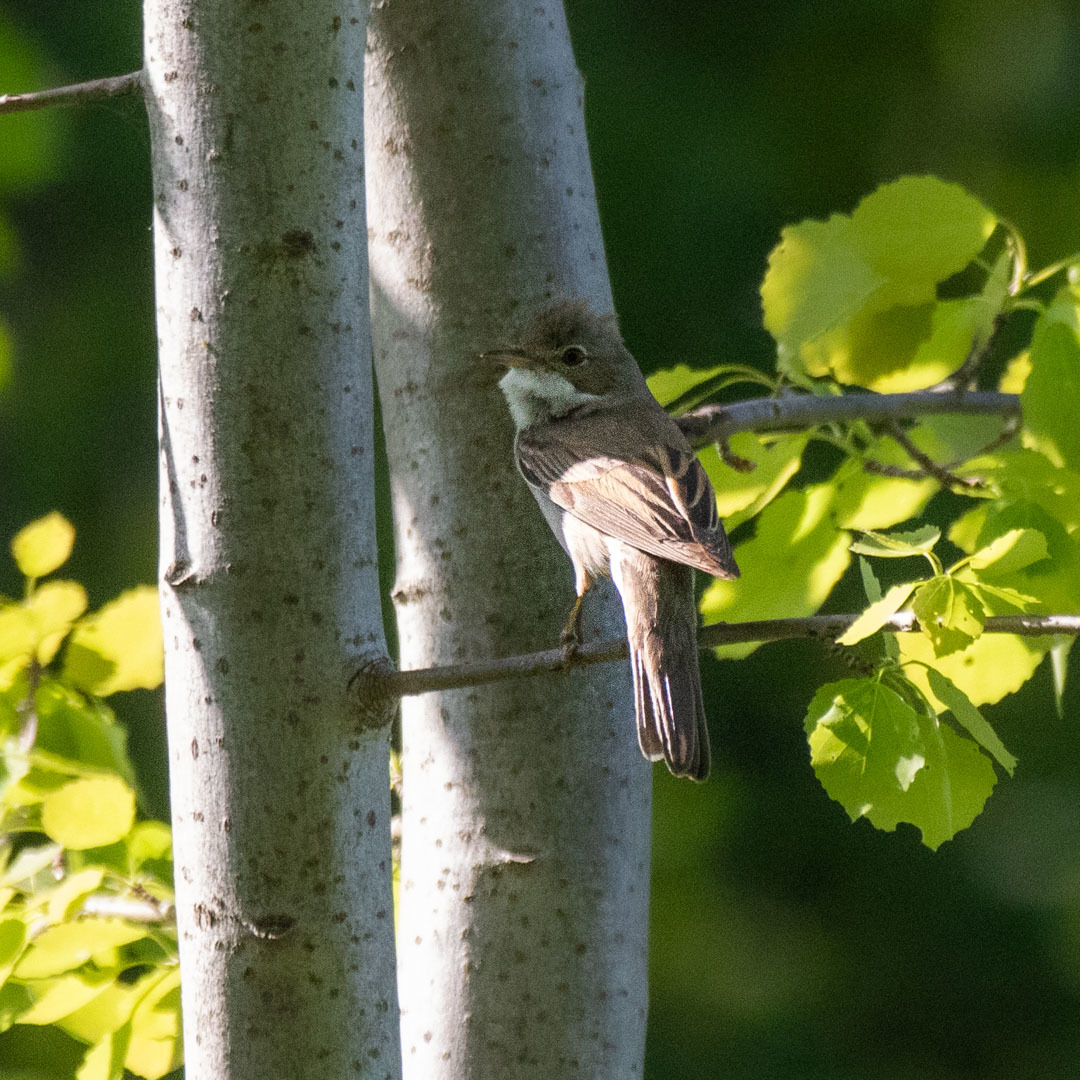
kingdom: Animalia
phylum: Chordata
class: Aves
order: Passeriformes
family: Sylviidae
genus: Sylvia
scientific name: Sylvia communis
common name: Common whitethroat
